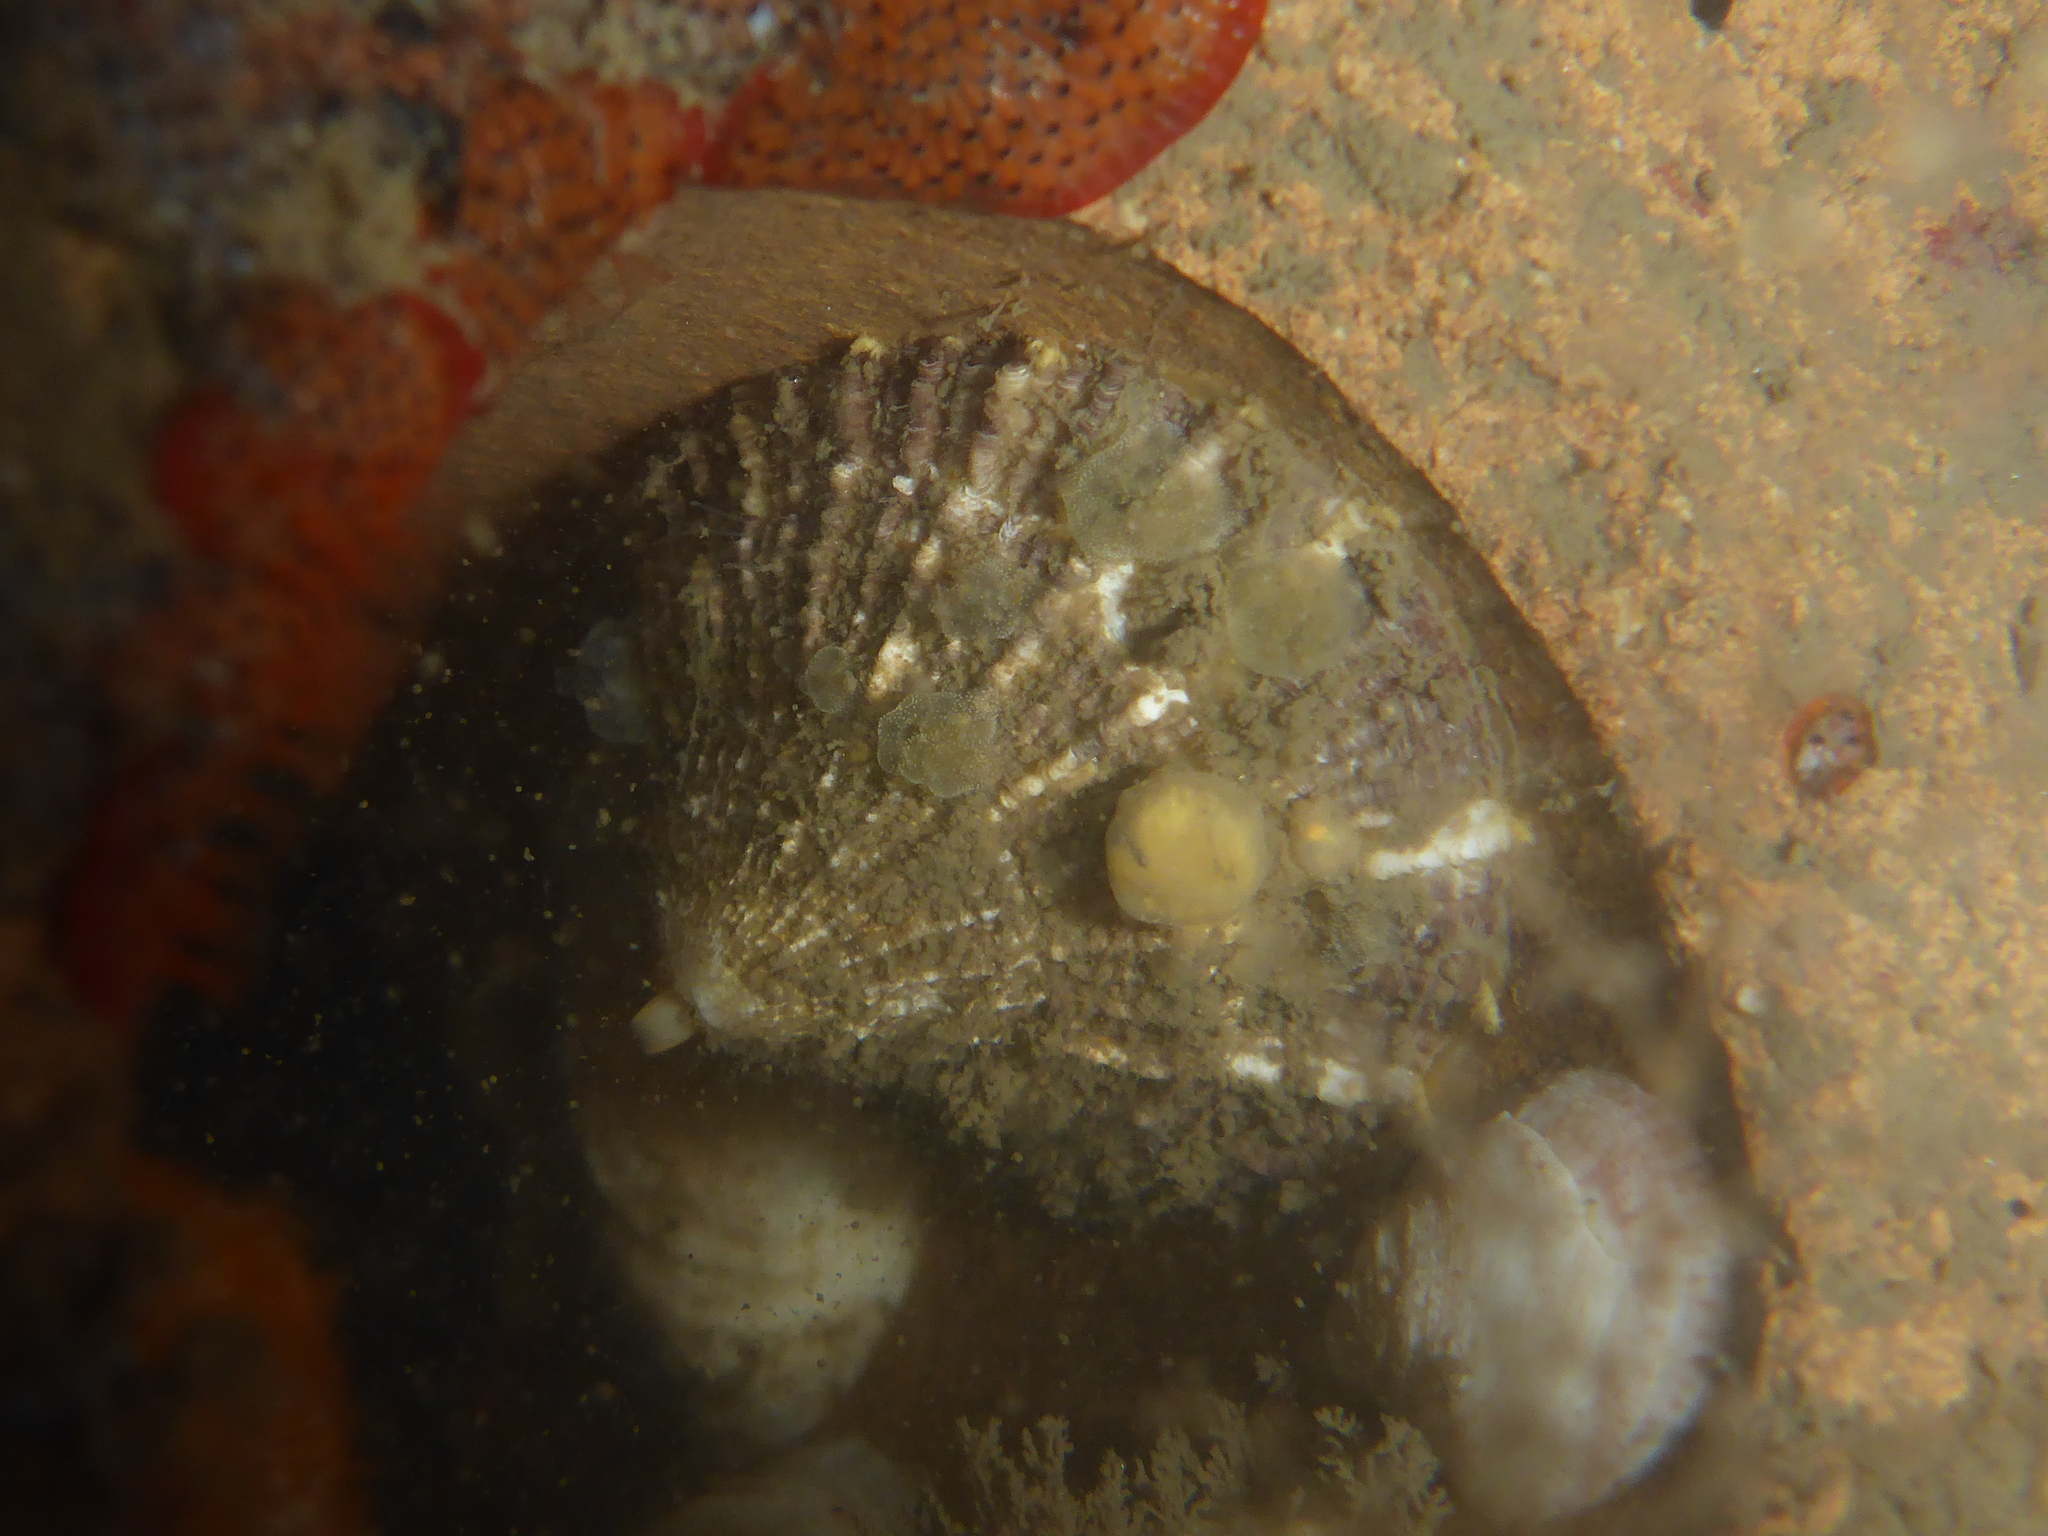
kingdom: Animalia
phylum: Mollusca
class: Gastropoda
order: Lepetellida
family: Fissurellidae
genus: Diodora
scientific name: Diodora aspera
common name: Rough keyhole limpet
